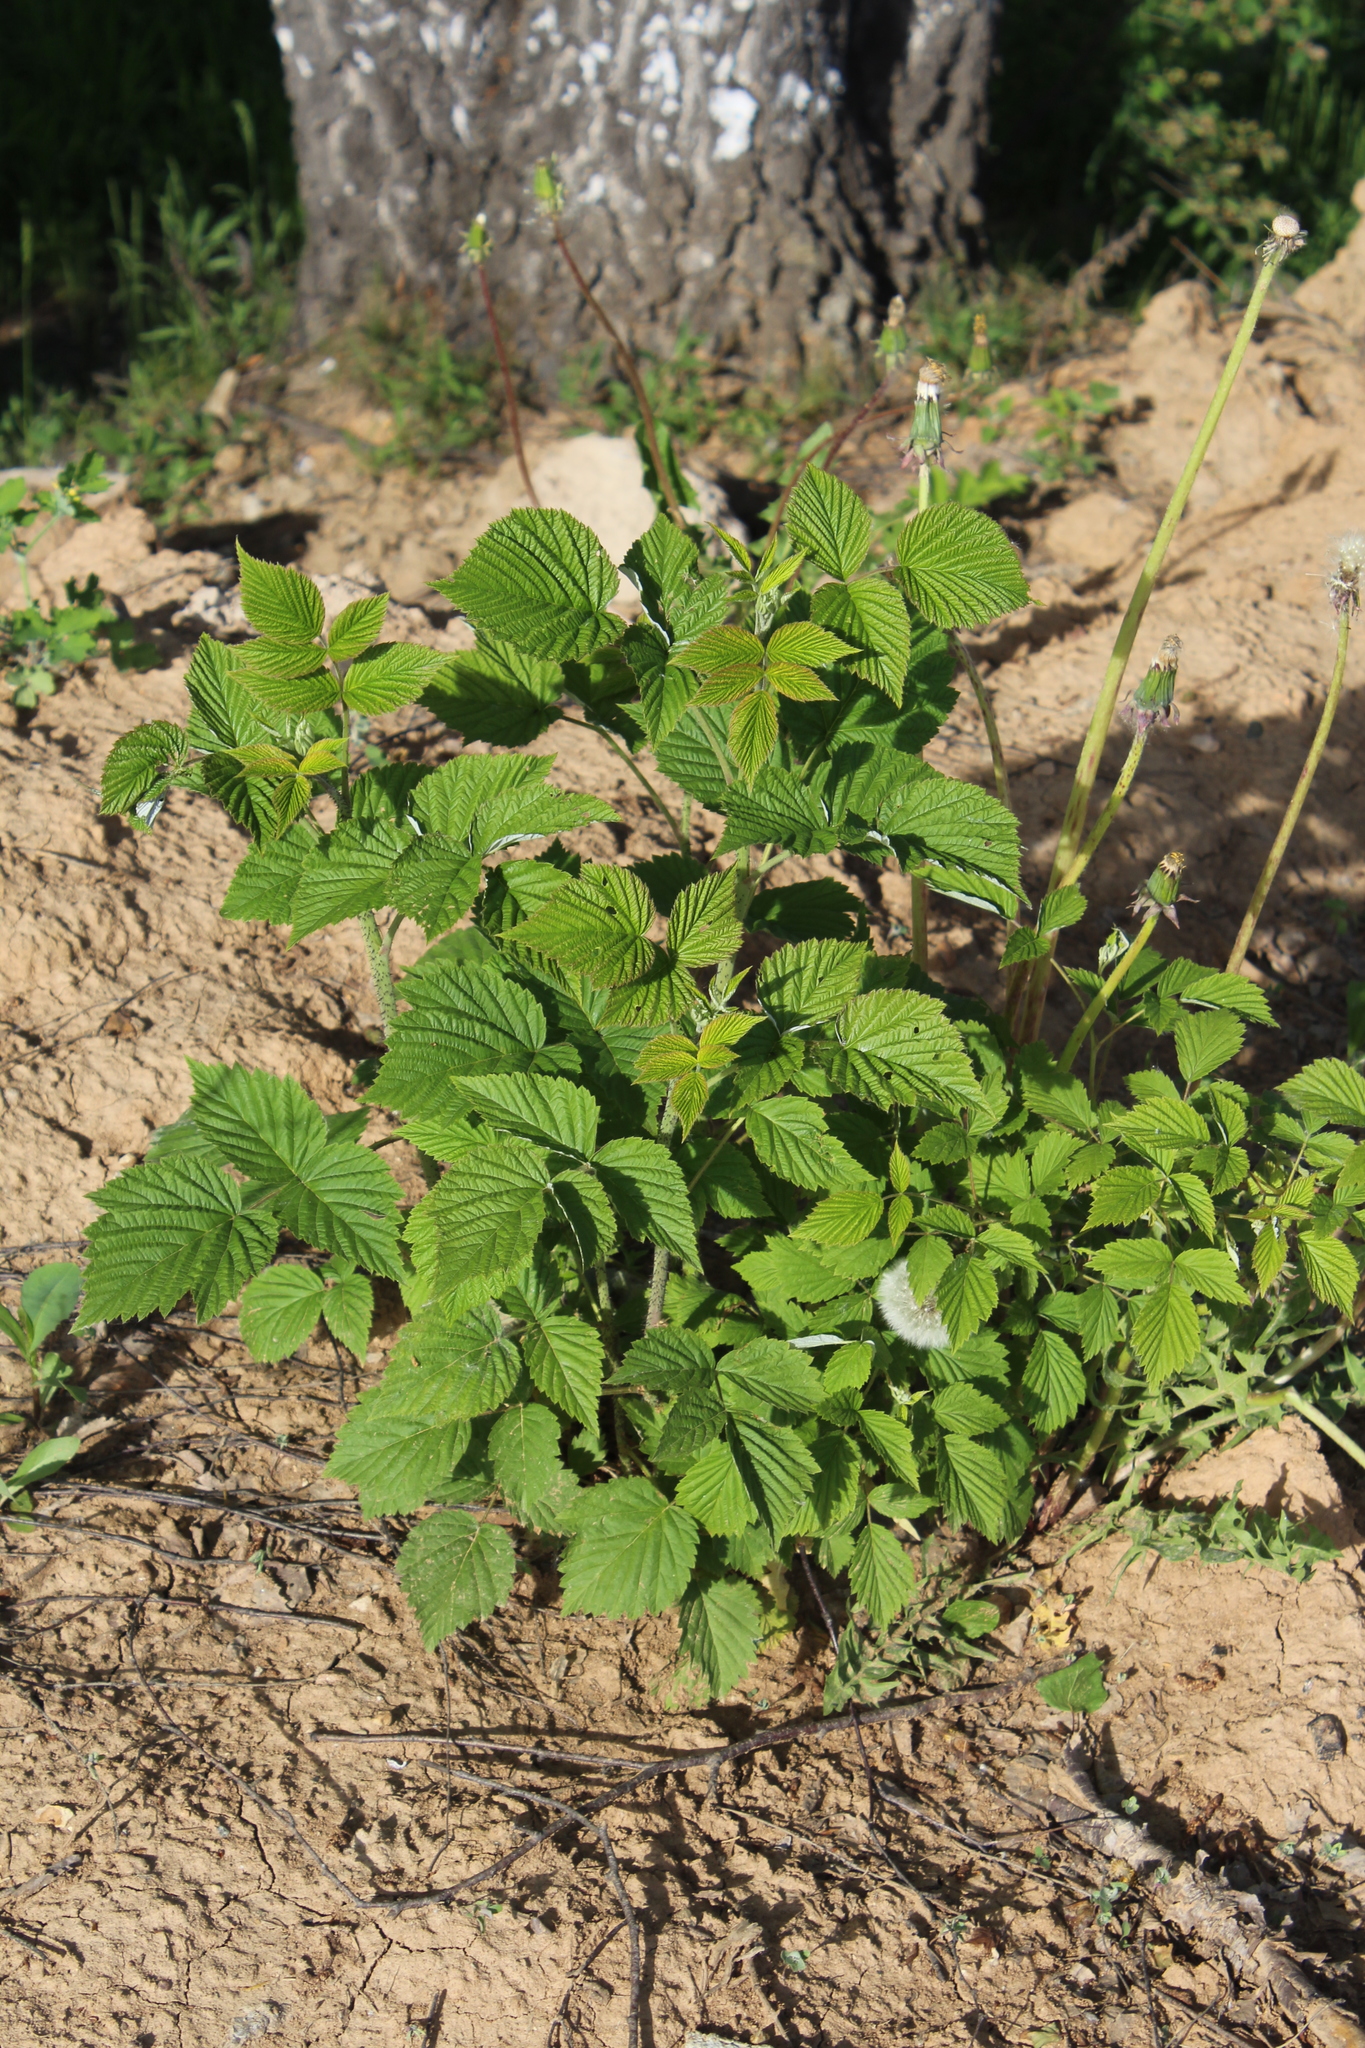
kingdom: Plantae
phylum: Tracheophyta
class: Magnoliopsida
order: Rosales
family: Rosaceae
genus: Rubus
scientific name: Rubus idaeus
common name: Raspberry
